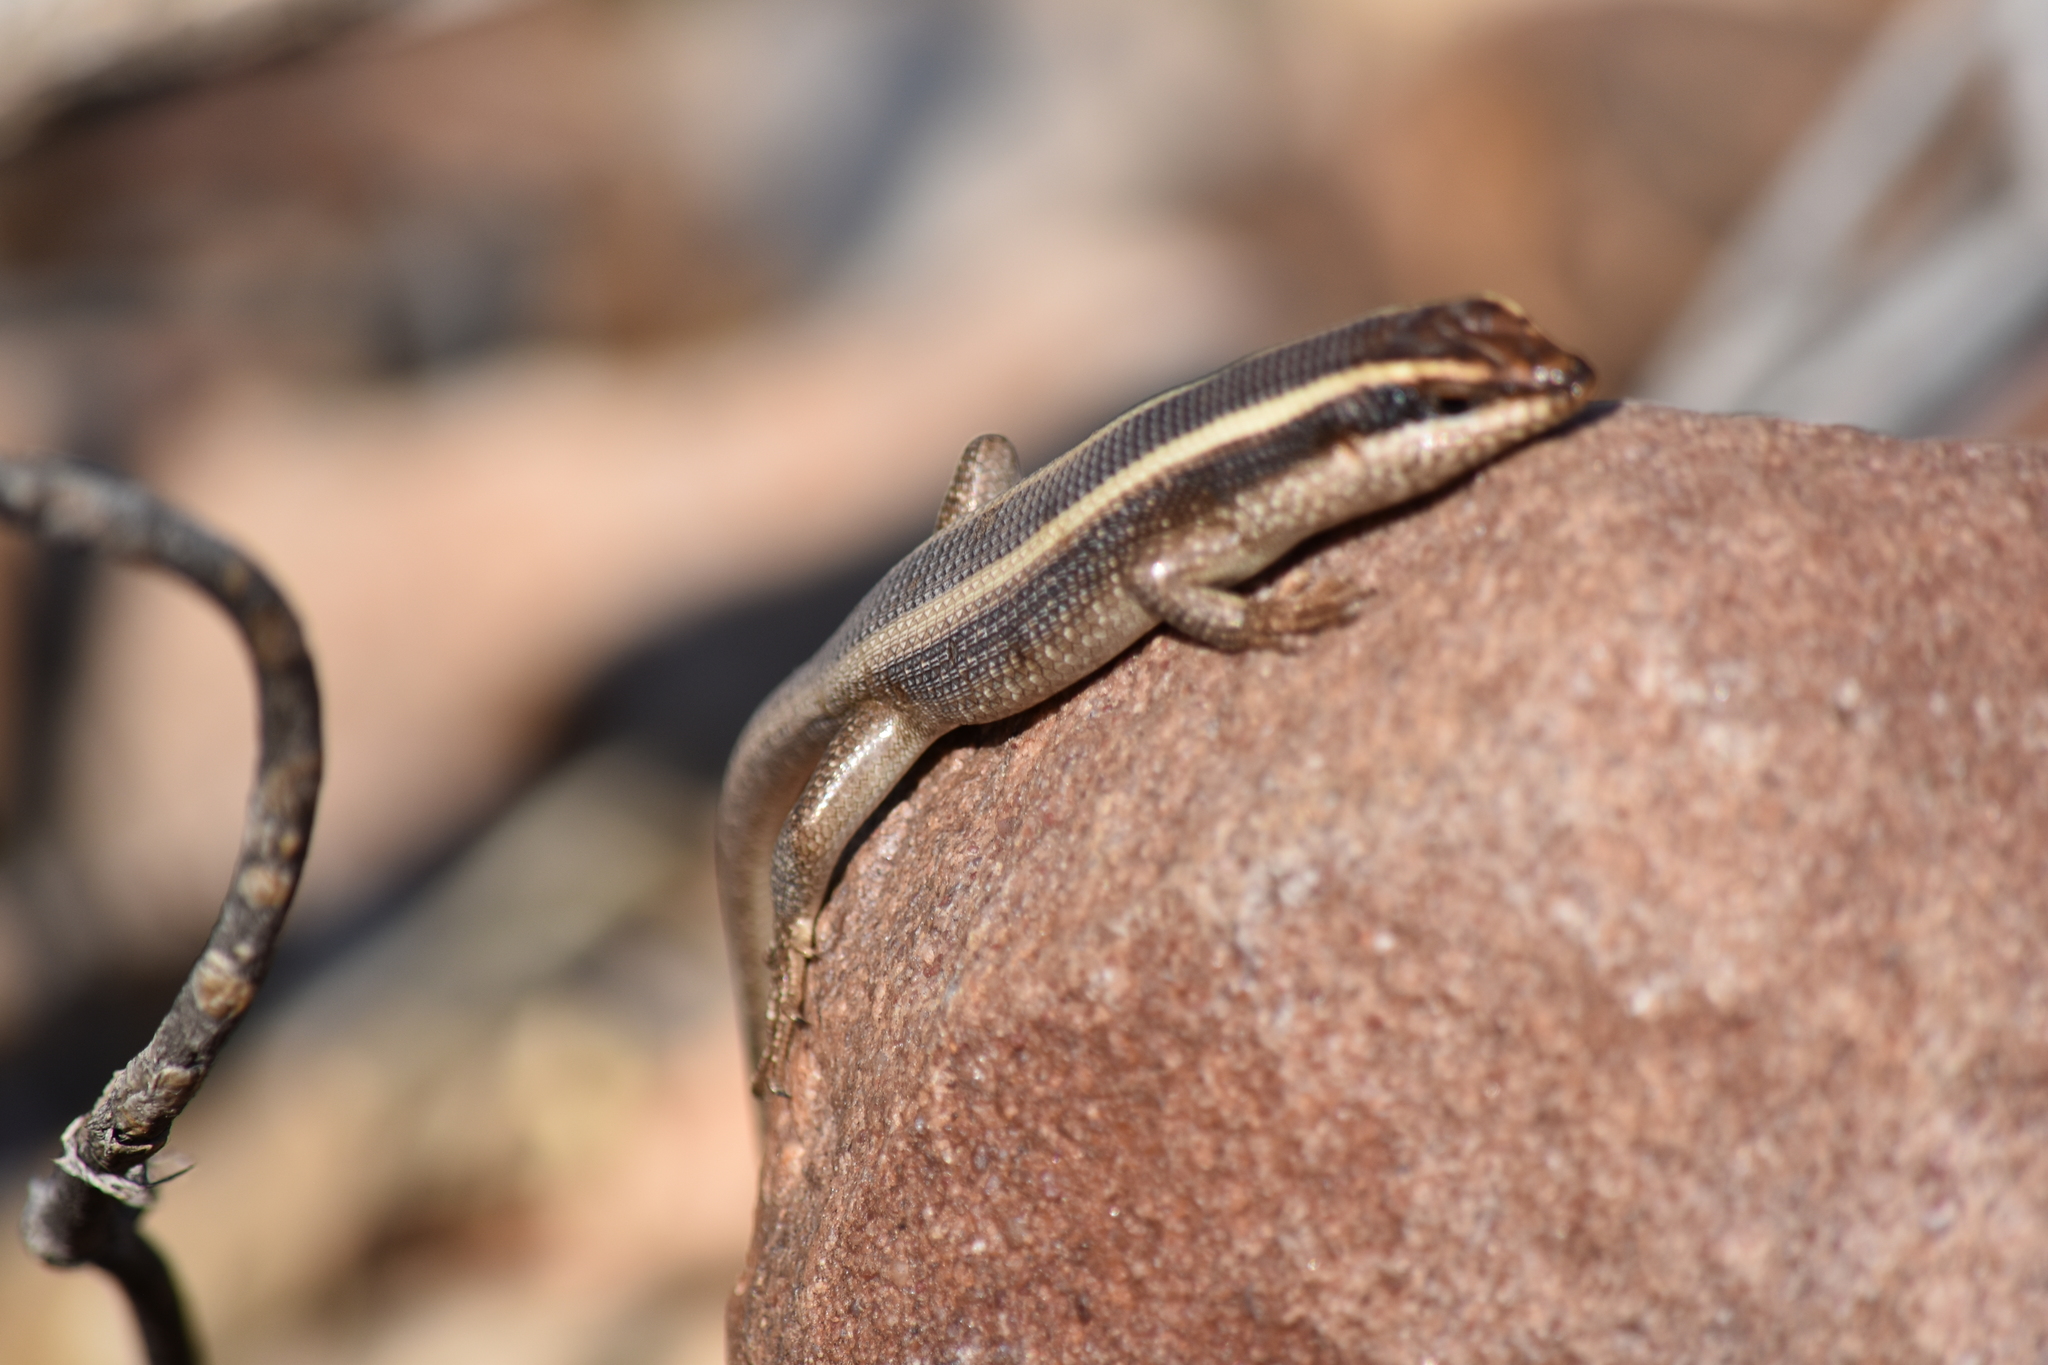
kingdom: Animalia
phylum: Chordata
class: Squamata
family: Scincidae
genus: Trachylepis
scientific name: Trachylepis striata
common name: African striped mabuya
